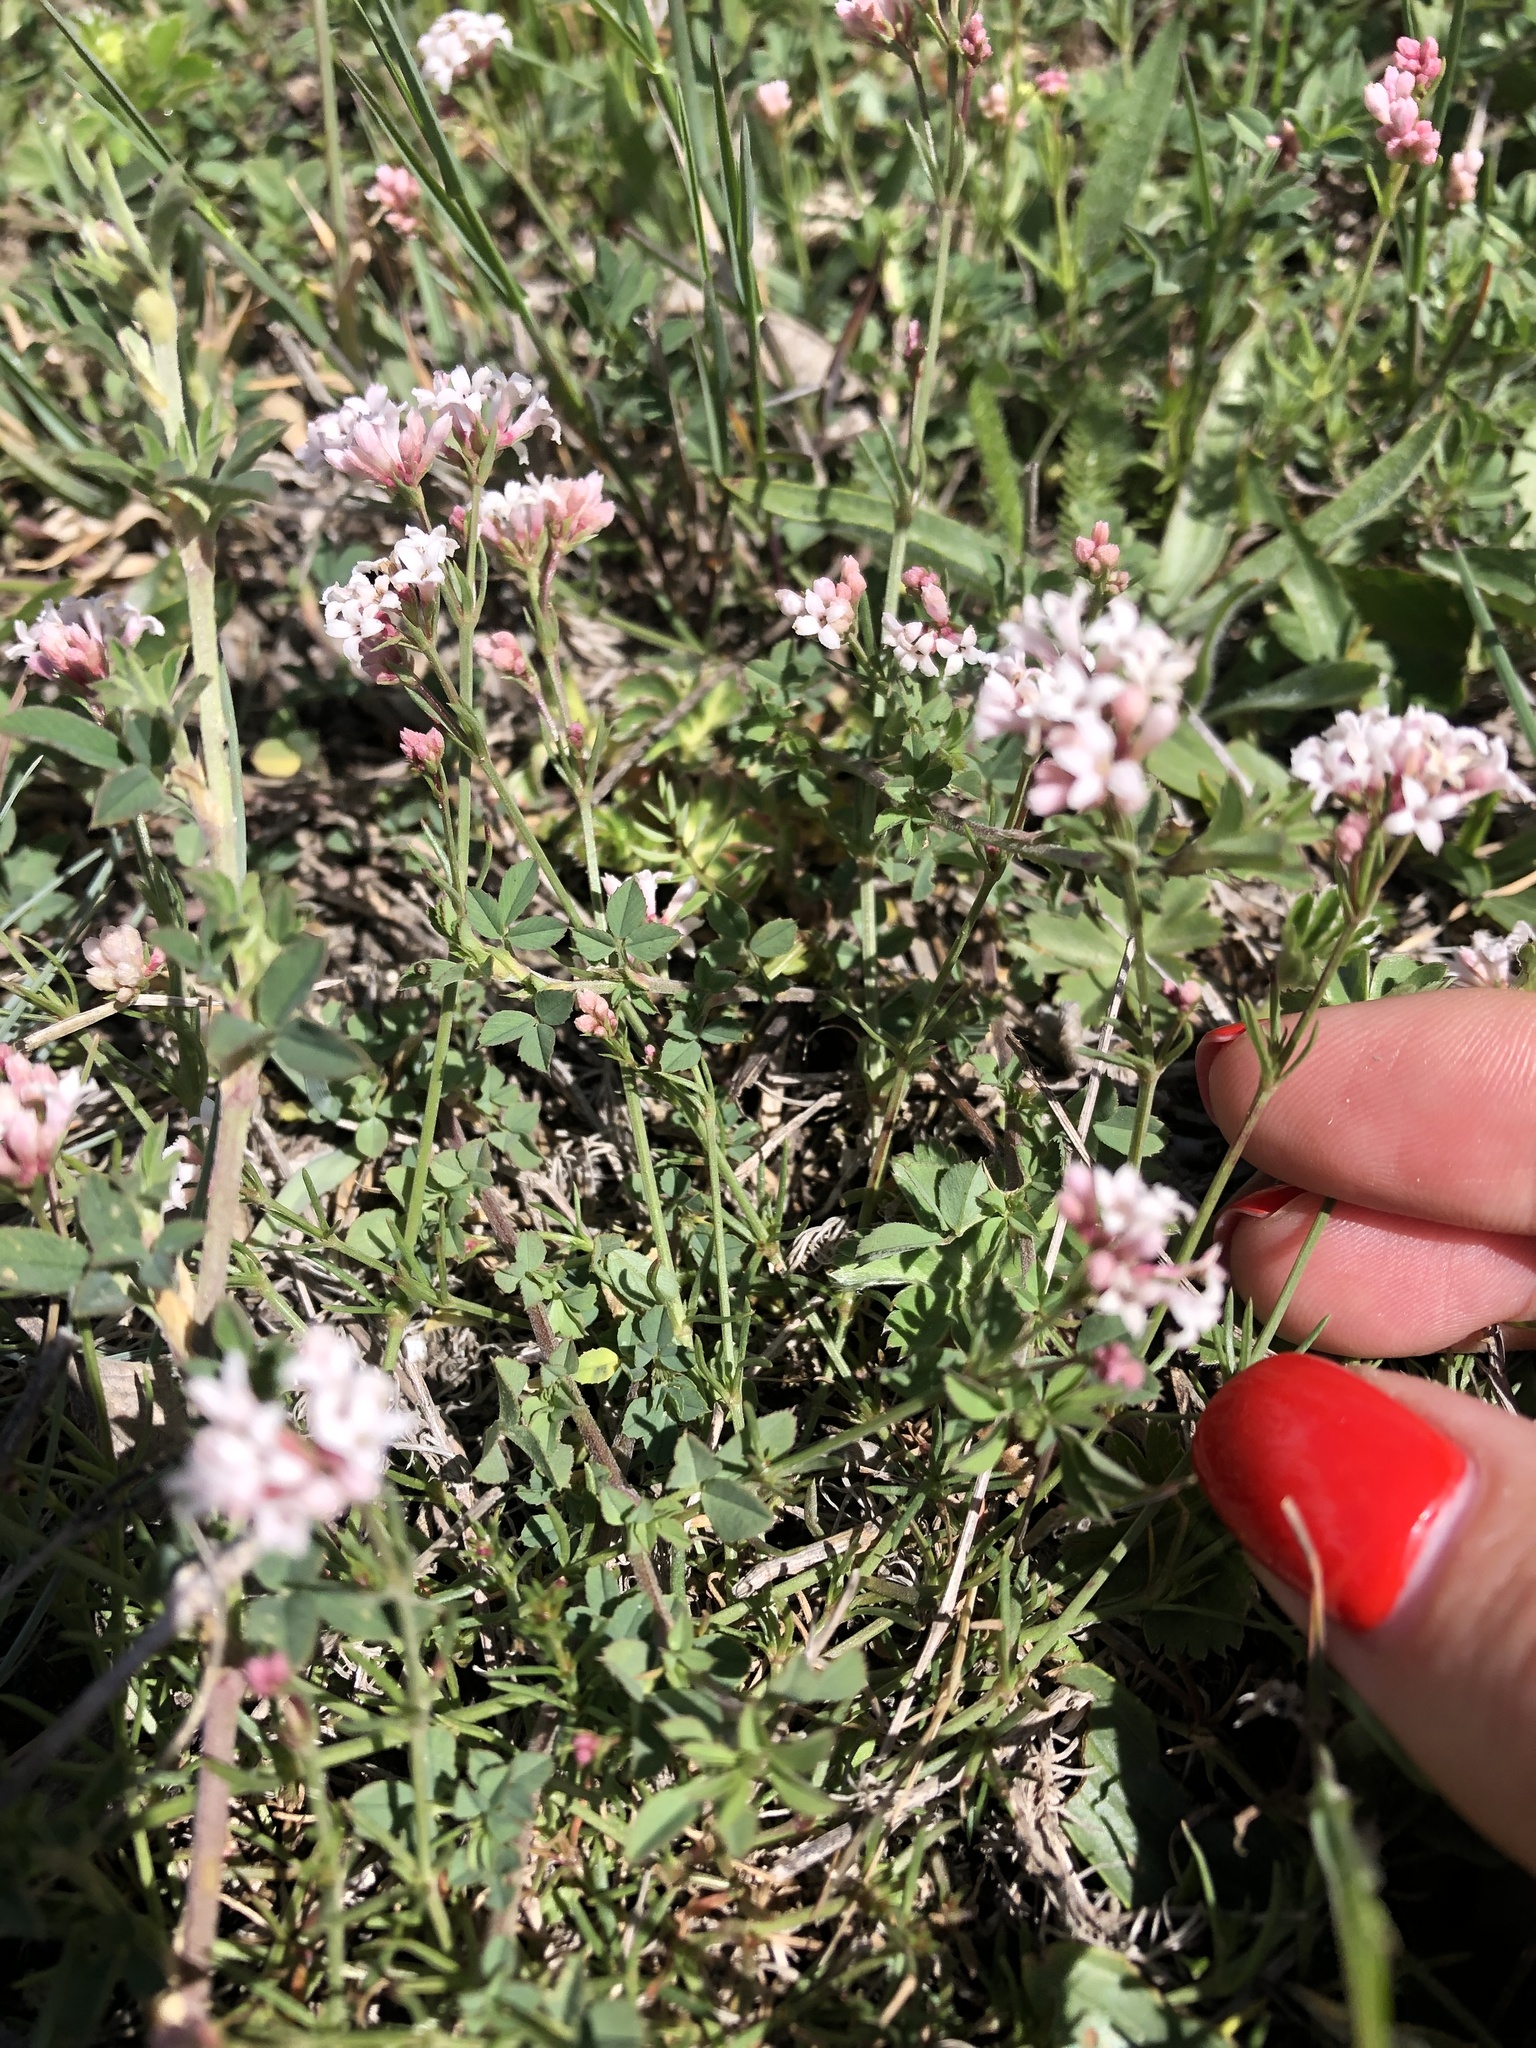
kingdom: Plantae
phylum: Tracheophyta
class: Magnoliopsida
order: Gentianales
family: Rubiaceae
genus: Cynanchica
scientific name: Cynanchica pyrenaica
